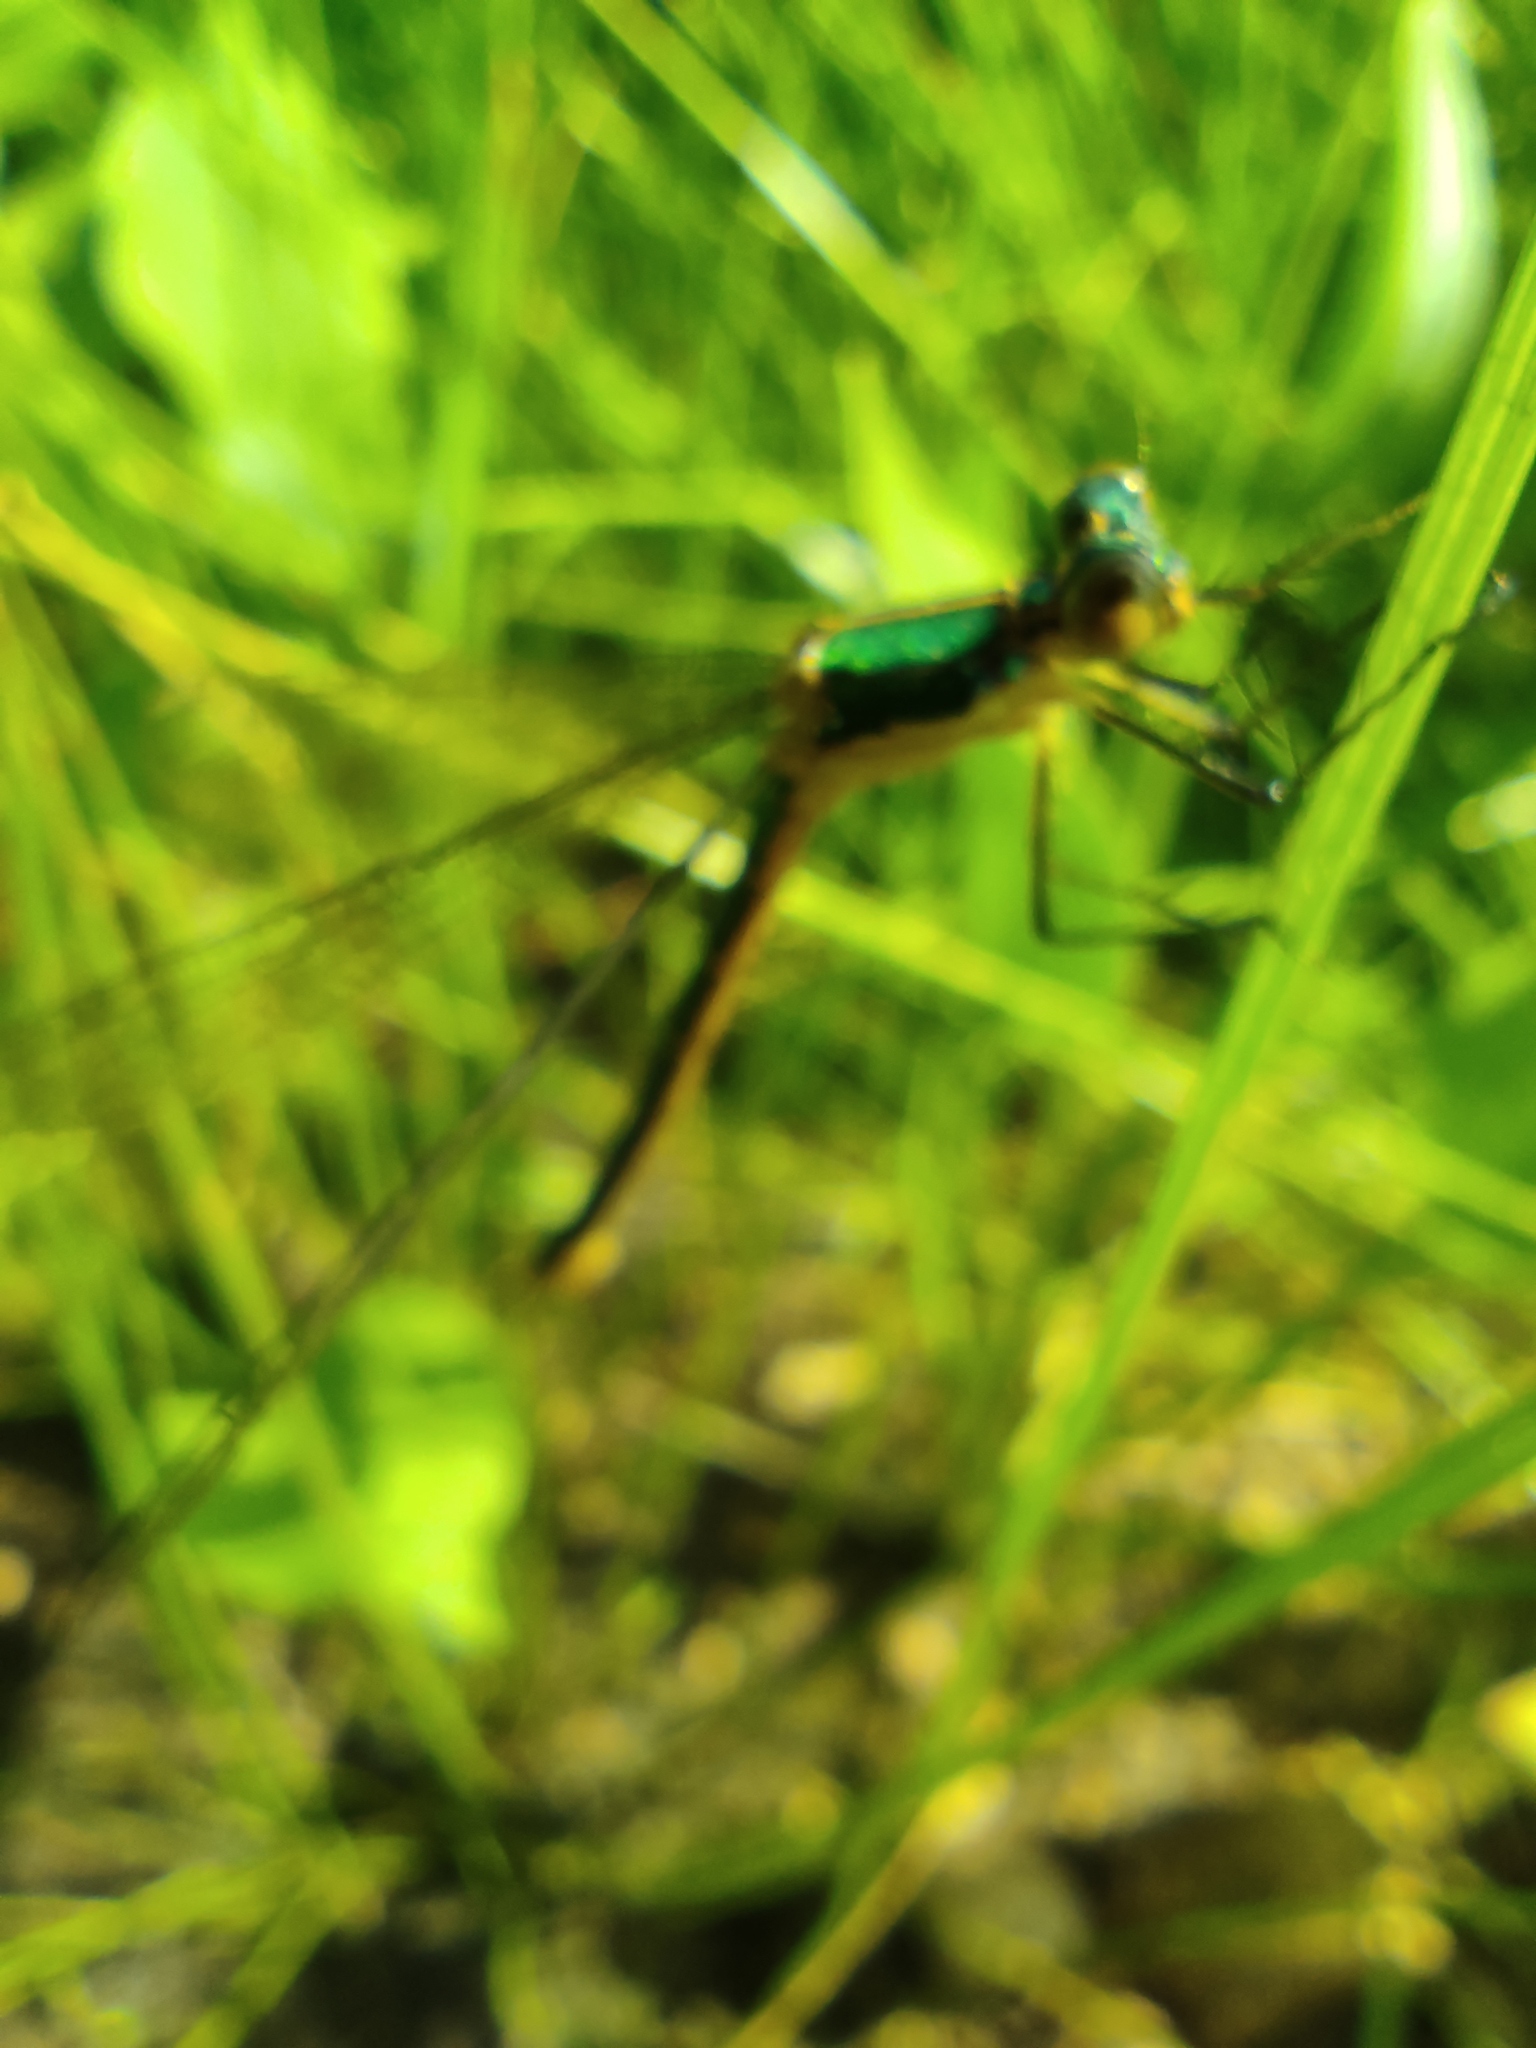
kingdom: Animalia
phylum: Arthropoda
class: Insecta
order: Odonata
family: Lestidae
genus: Lestes
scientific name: Lestes dryas
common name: Scarce emerald damselfly
